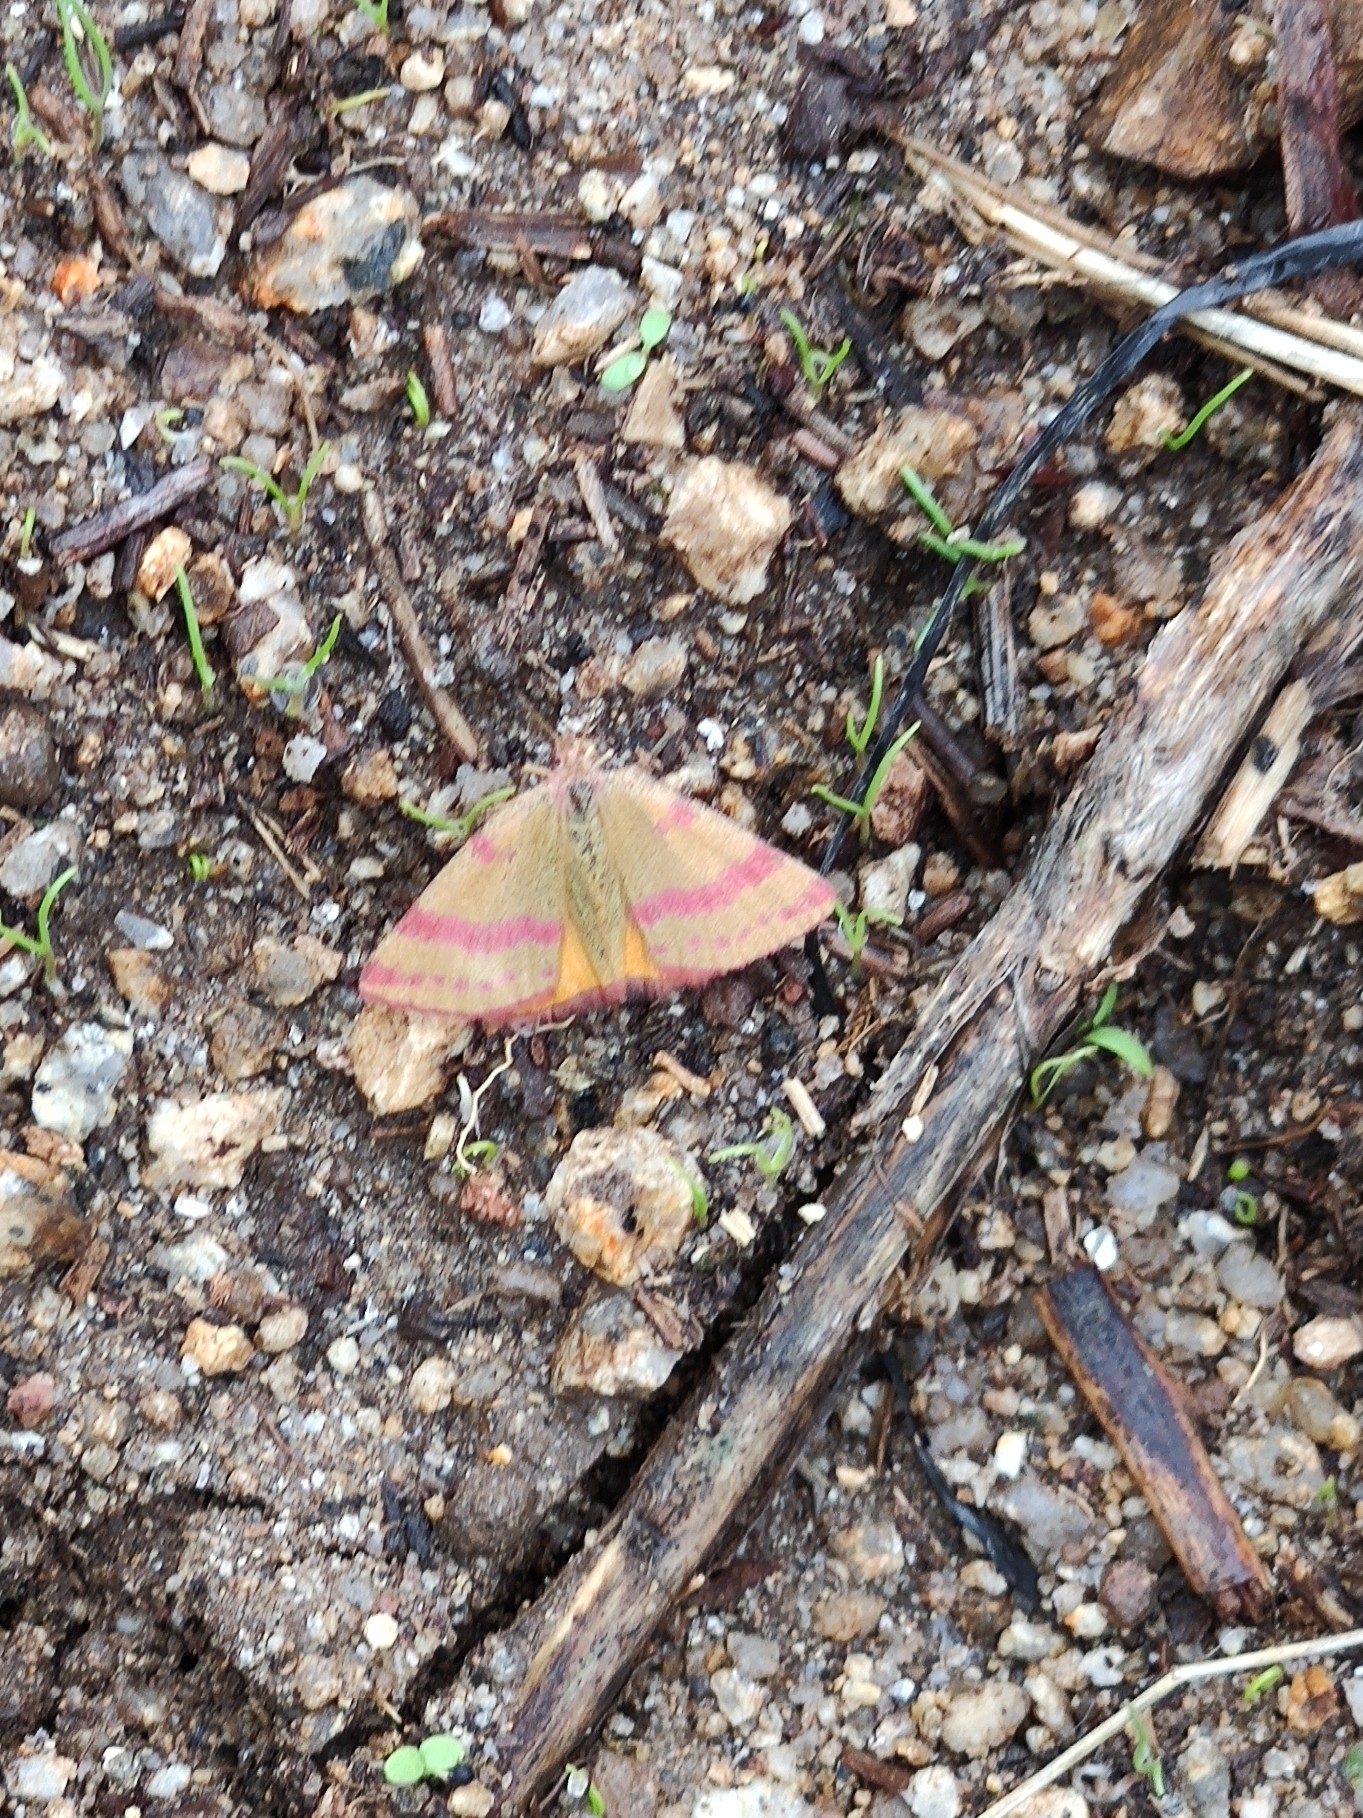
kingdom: Animalia
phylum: Arthropoda
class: Insecta
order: Lepidoptera
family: Geometridae
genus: Lythria
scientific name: Lythria cruentaria
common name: Purple-barred yellow
